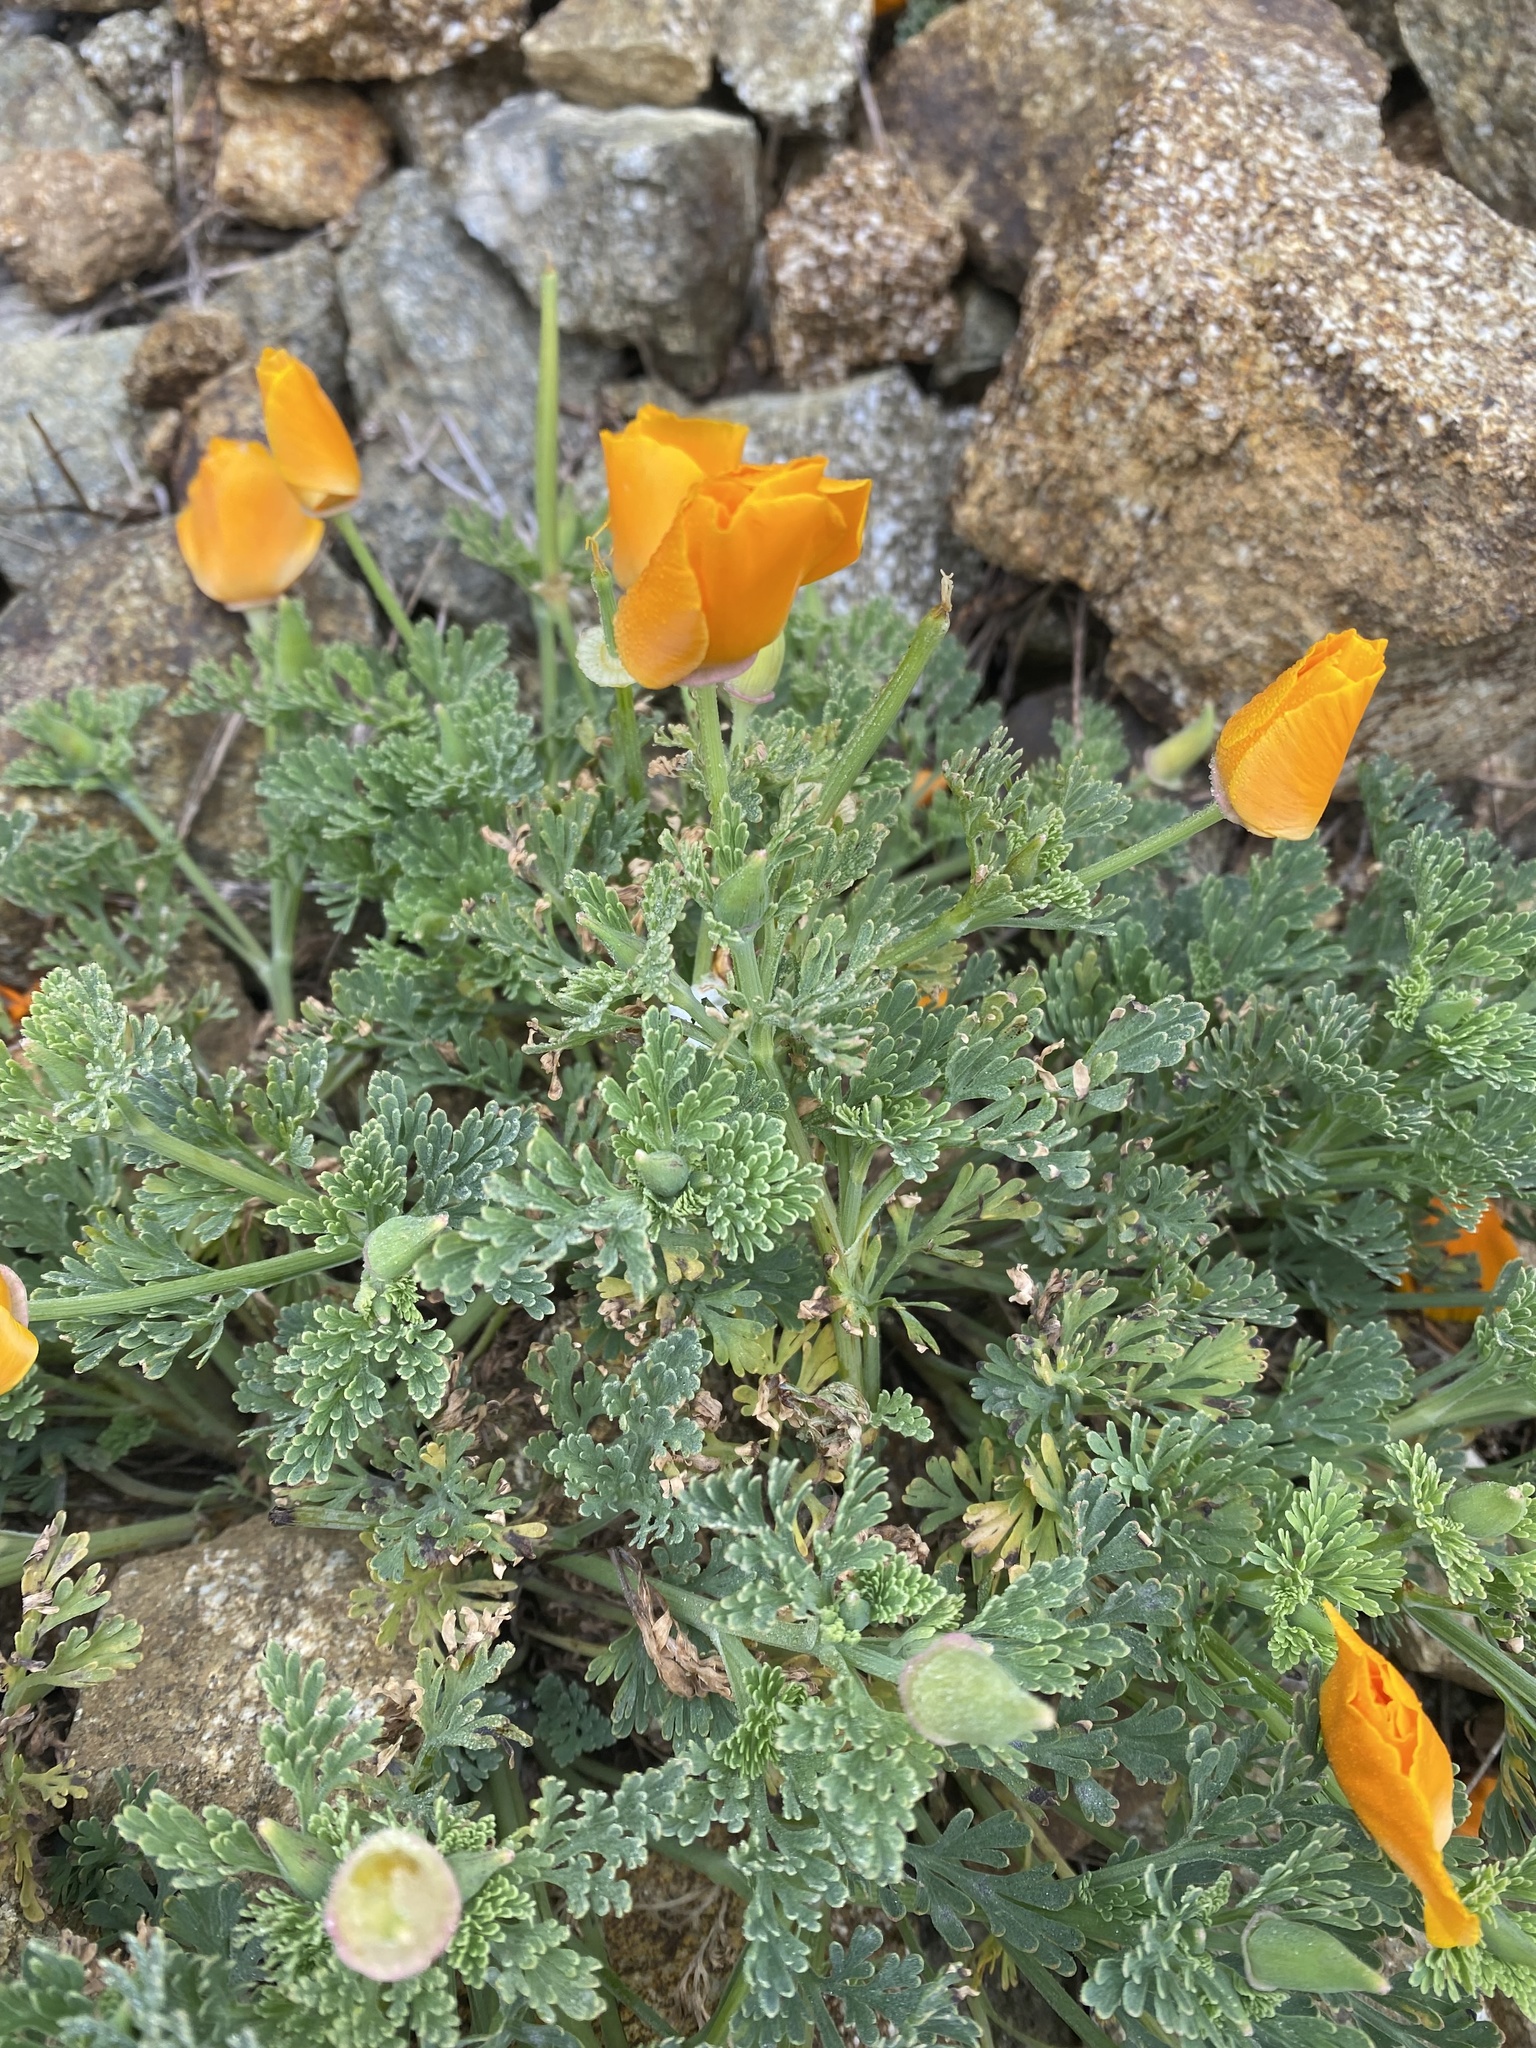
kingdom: Plantae
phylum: Tracheophyta
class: Magnoliopsida
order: Ranunculales
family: Papaveraceae
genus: Eschscholzia
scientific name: Eschscholzia californica
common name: California poppy
